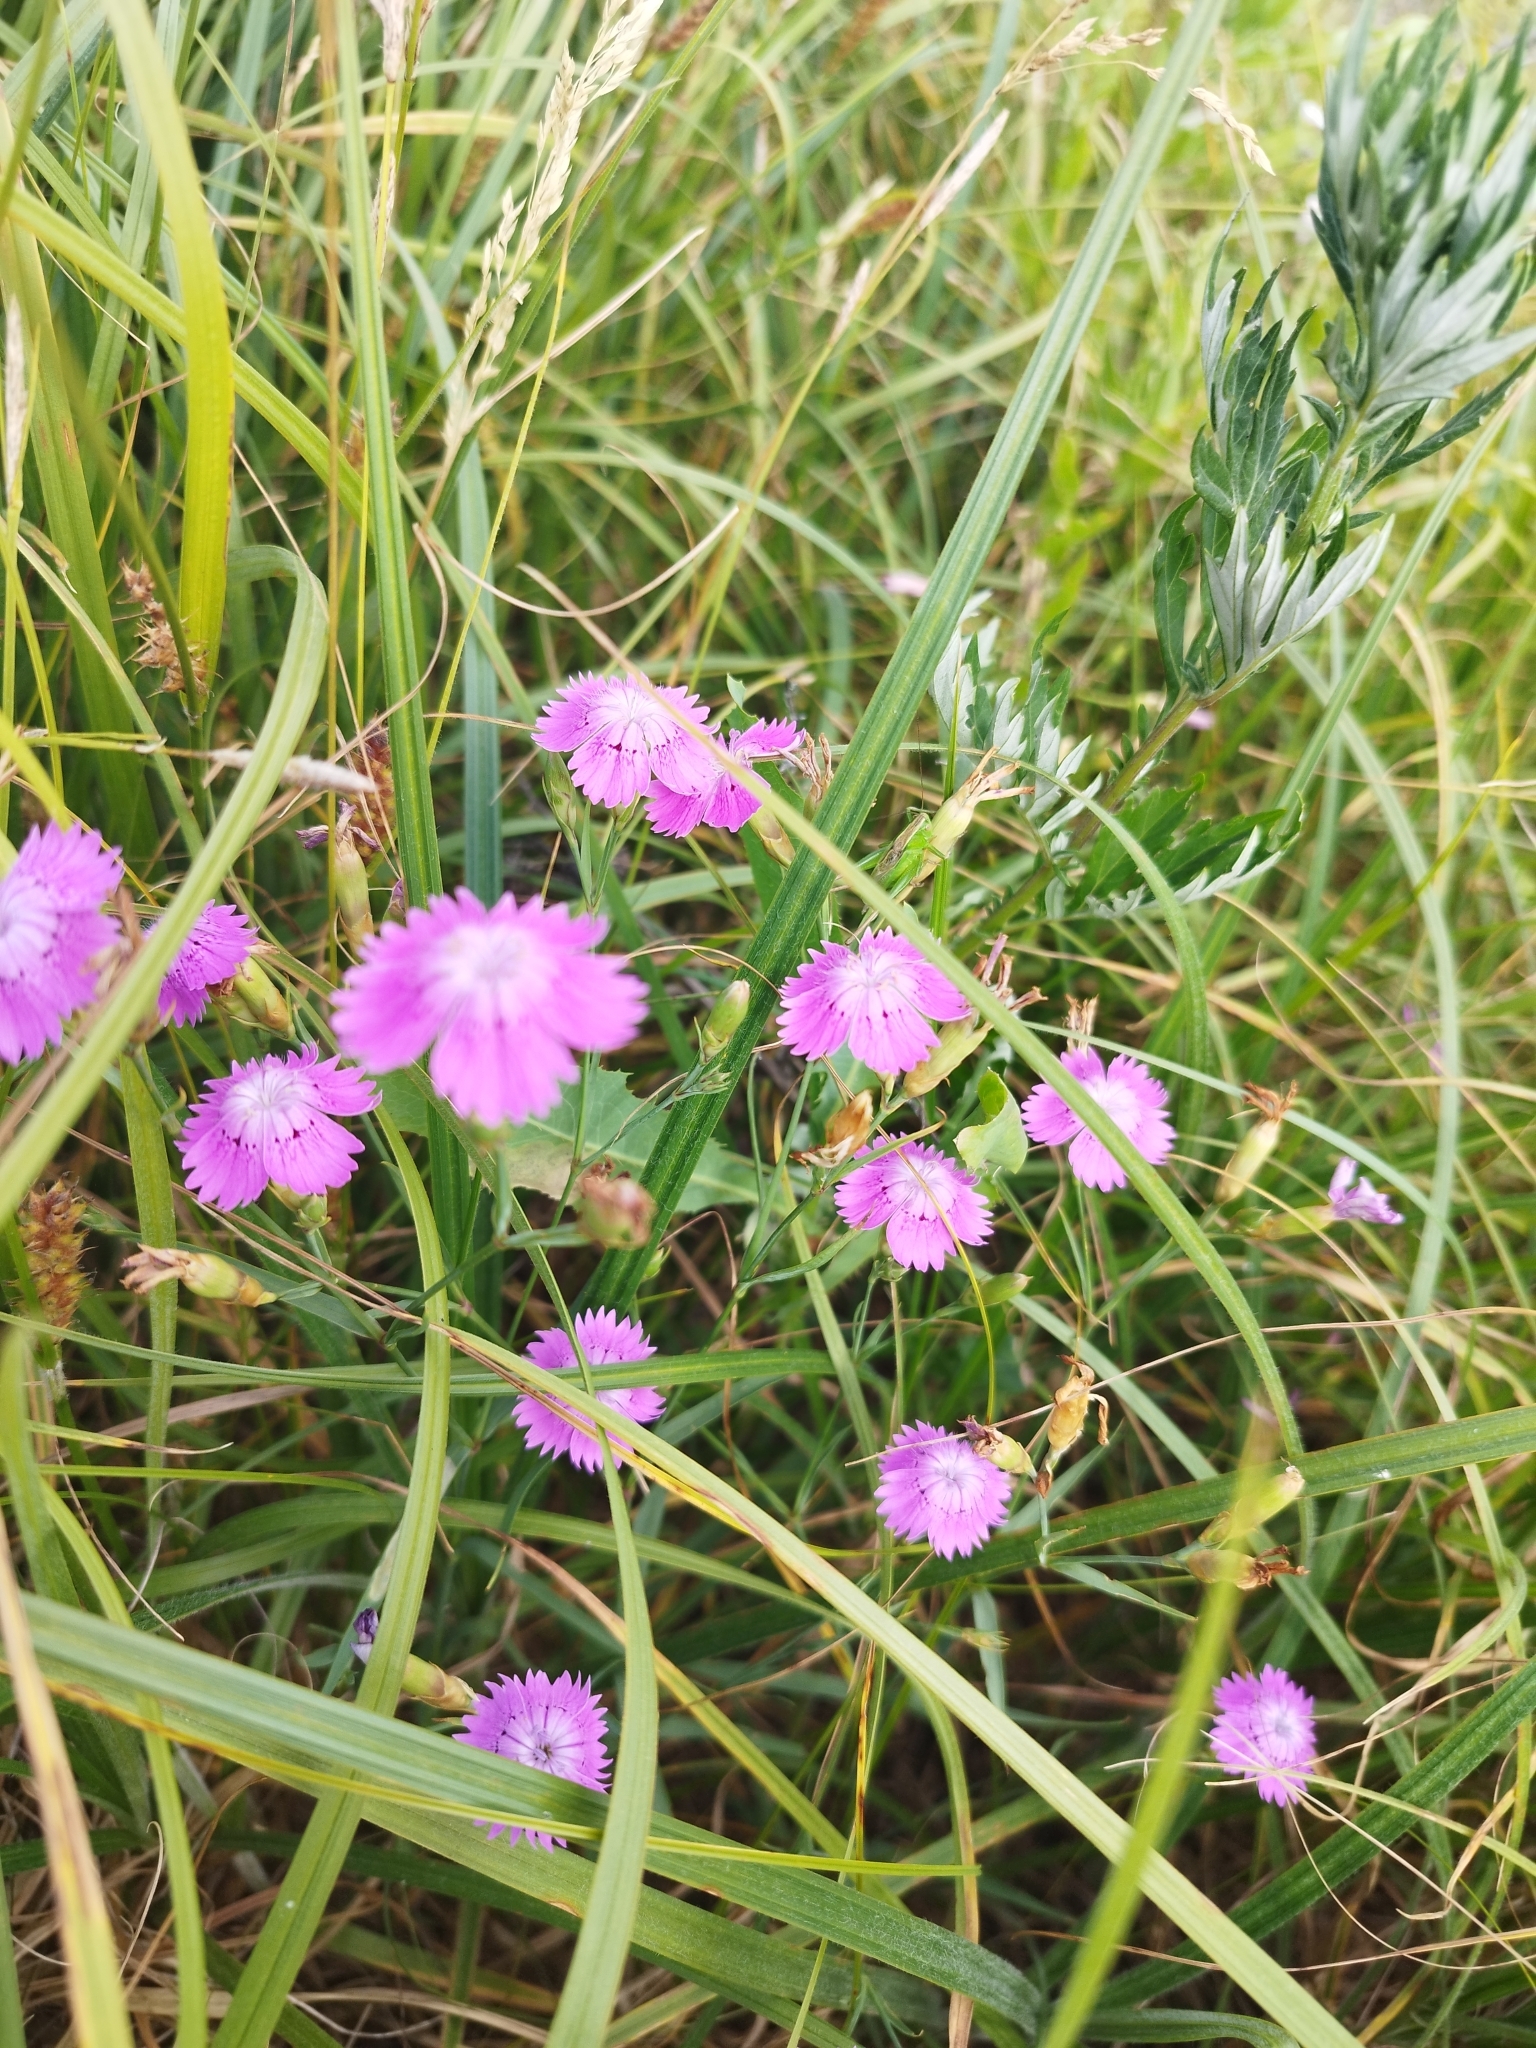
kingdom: Plantae
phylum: Tracheophyta
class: Magnoliopsida
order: Caryophyllales
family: Caryophyllaceae
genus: Dianthus
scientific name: Dianthus chinensis
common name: Rainbow pink
